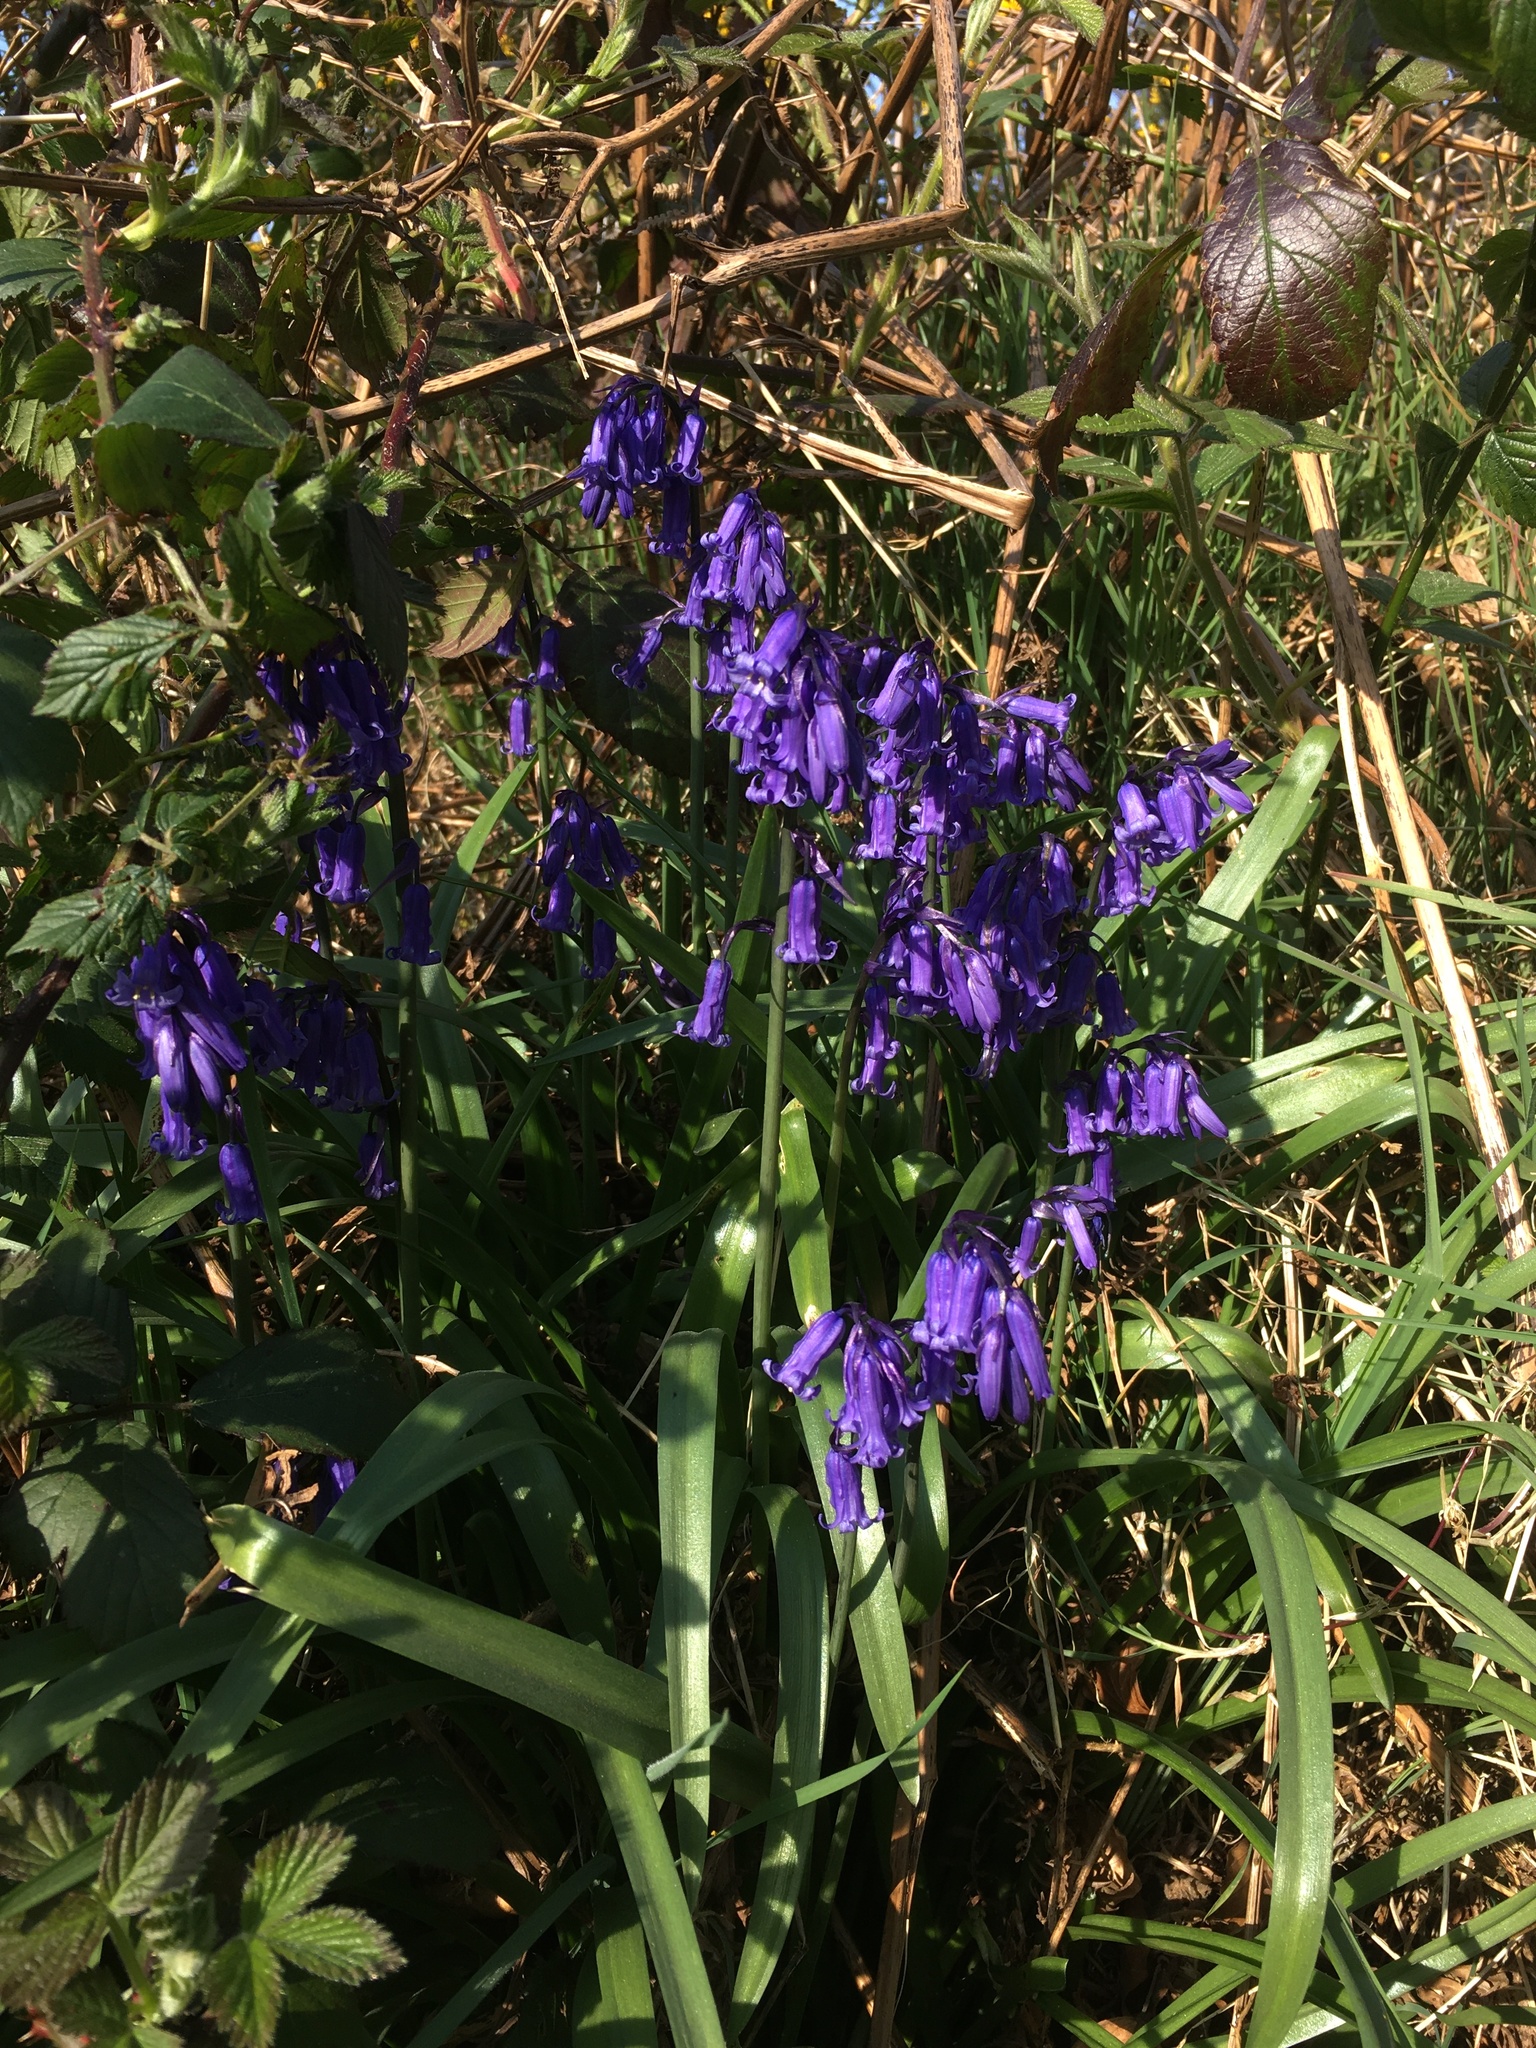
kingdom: Plantae
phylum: Tracheophyta
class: Liliopsida
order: Asparagales
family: Asparagaceae
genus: Hyacinthoides
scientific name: Hyacinthoides non-scripta
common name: Bluebell
